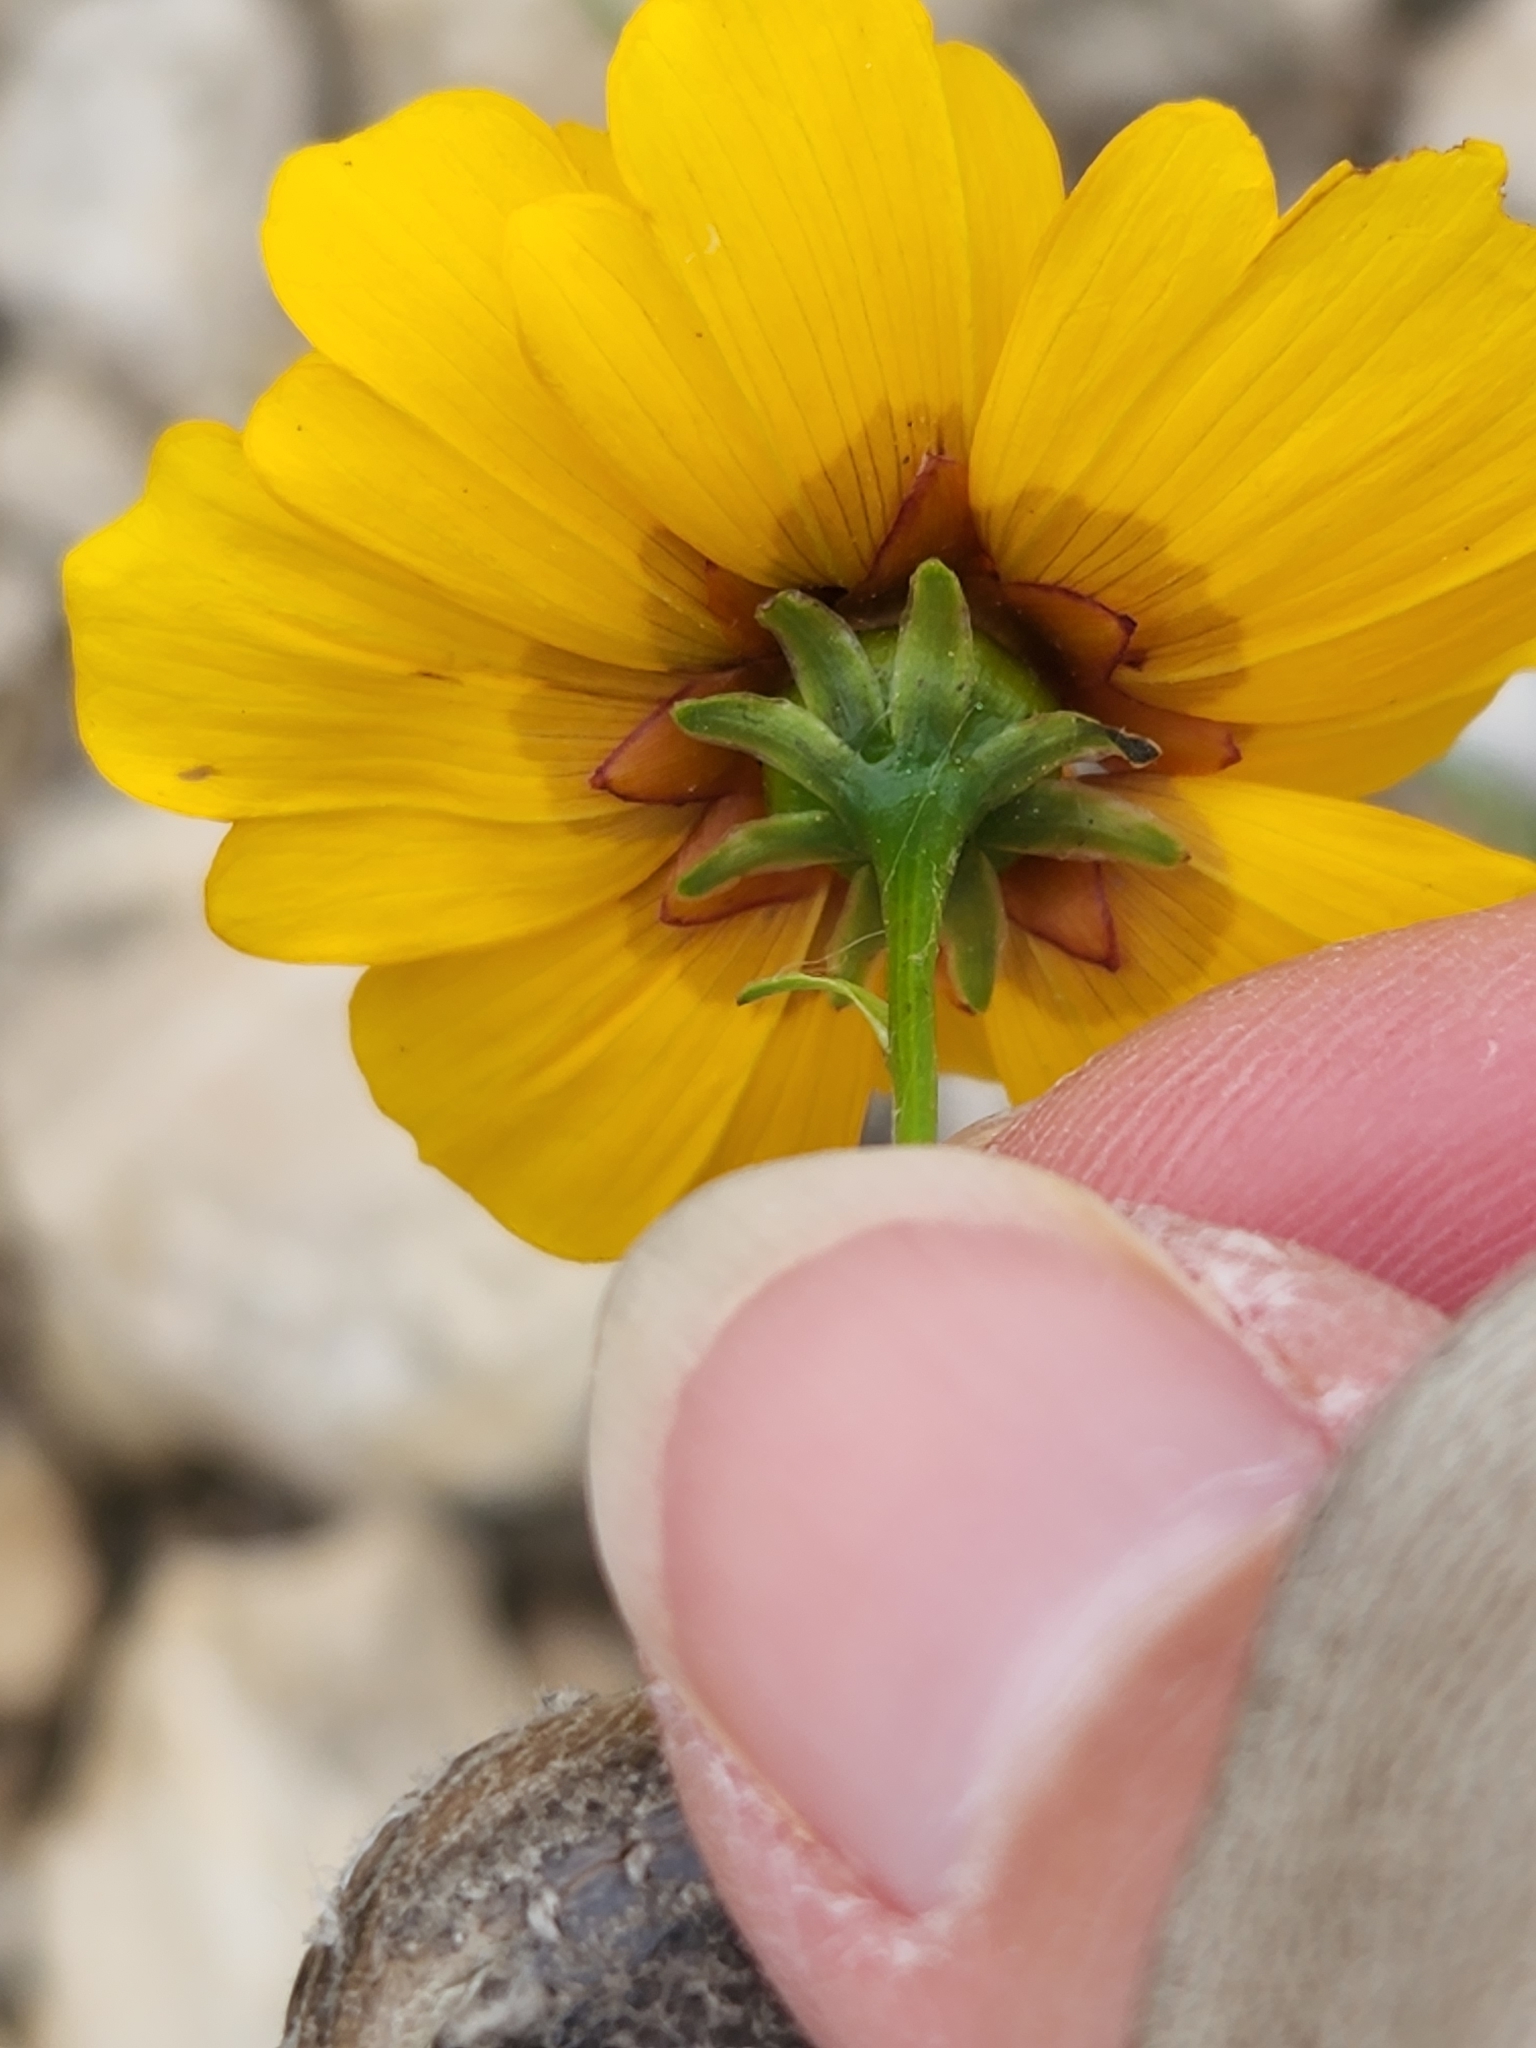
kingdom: Plantae
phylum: Tracheophyta
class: Magnoliopsida
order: Asterales
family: Asteraceae
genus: Coreopsis
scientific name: Coreopsis tinctoria
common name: Garden tickseed
